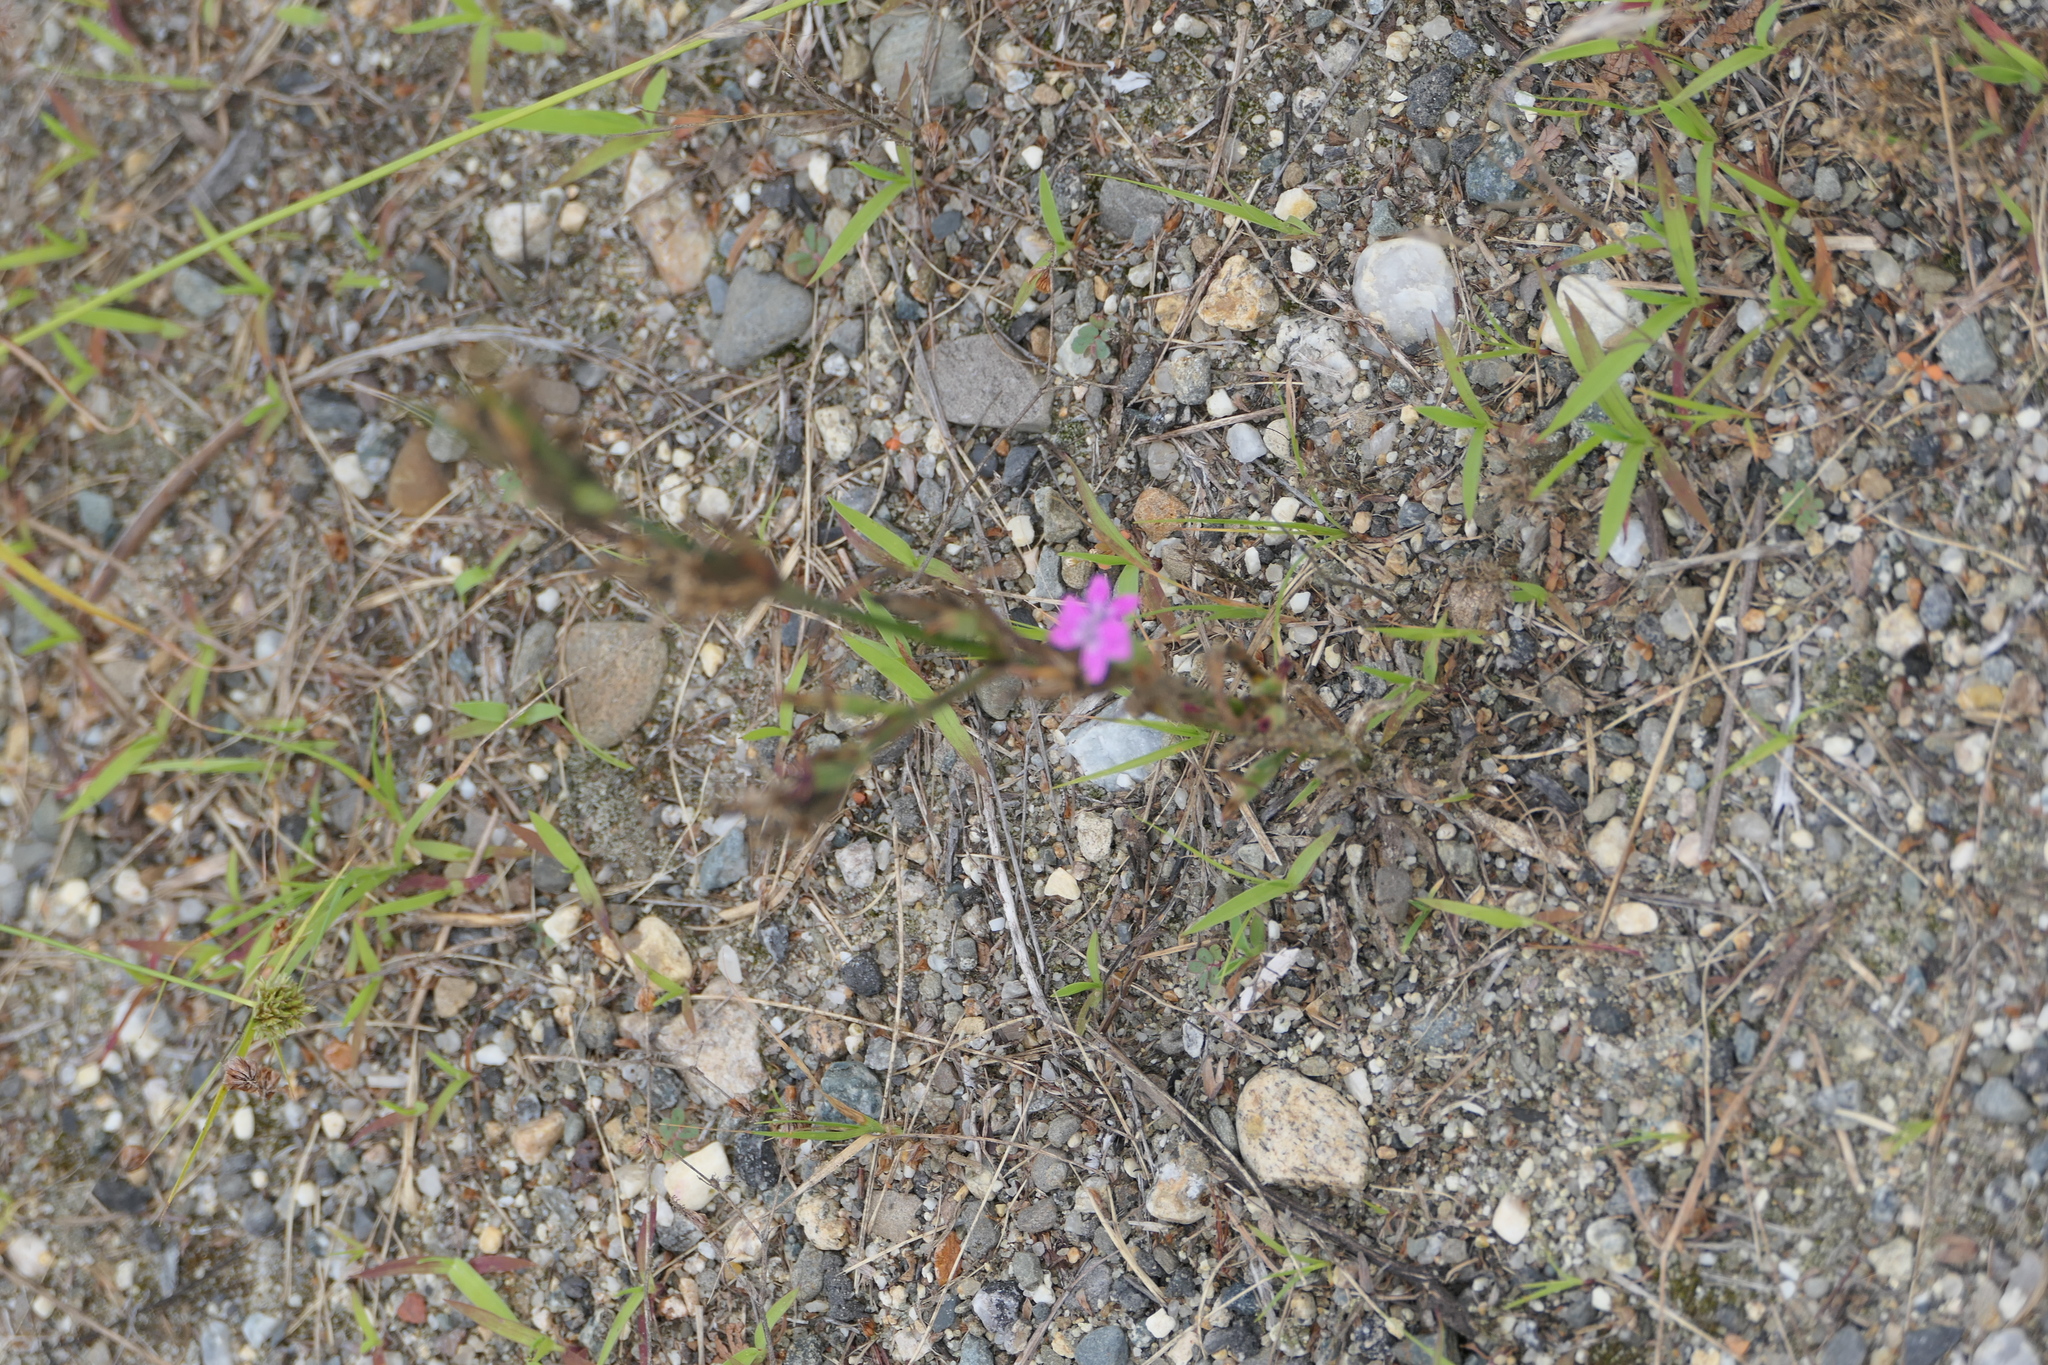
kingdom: Plantae
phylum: Tracheophyta
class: Magnoliopsida
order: Caryophyllales
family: Caryophyllaceae
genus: Dianthus
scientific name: Dianthus armeria
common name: Deptford pink
